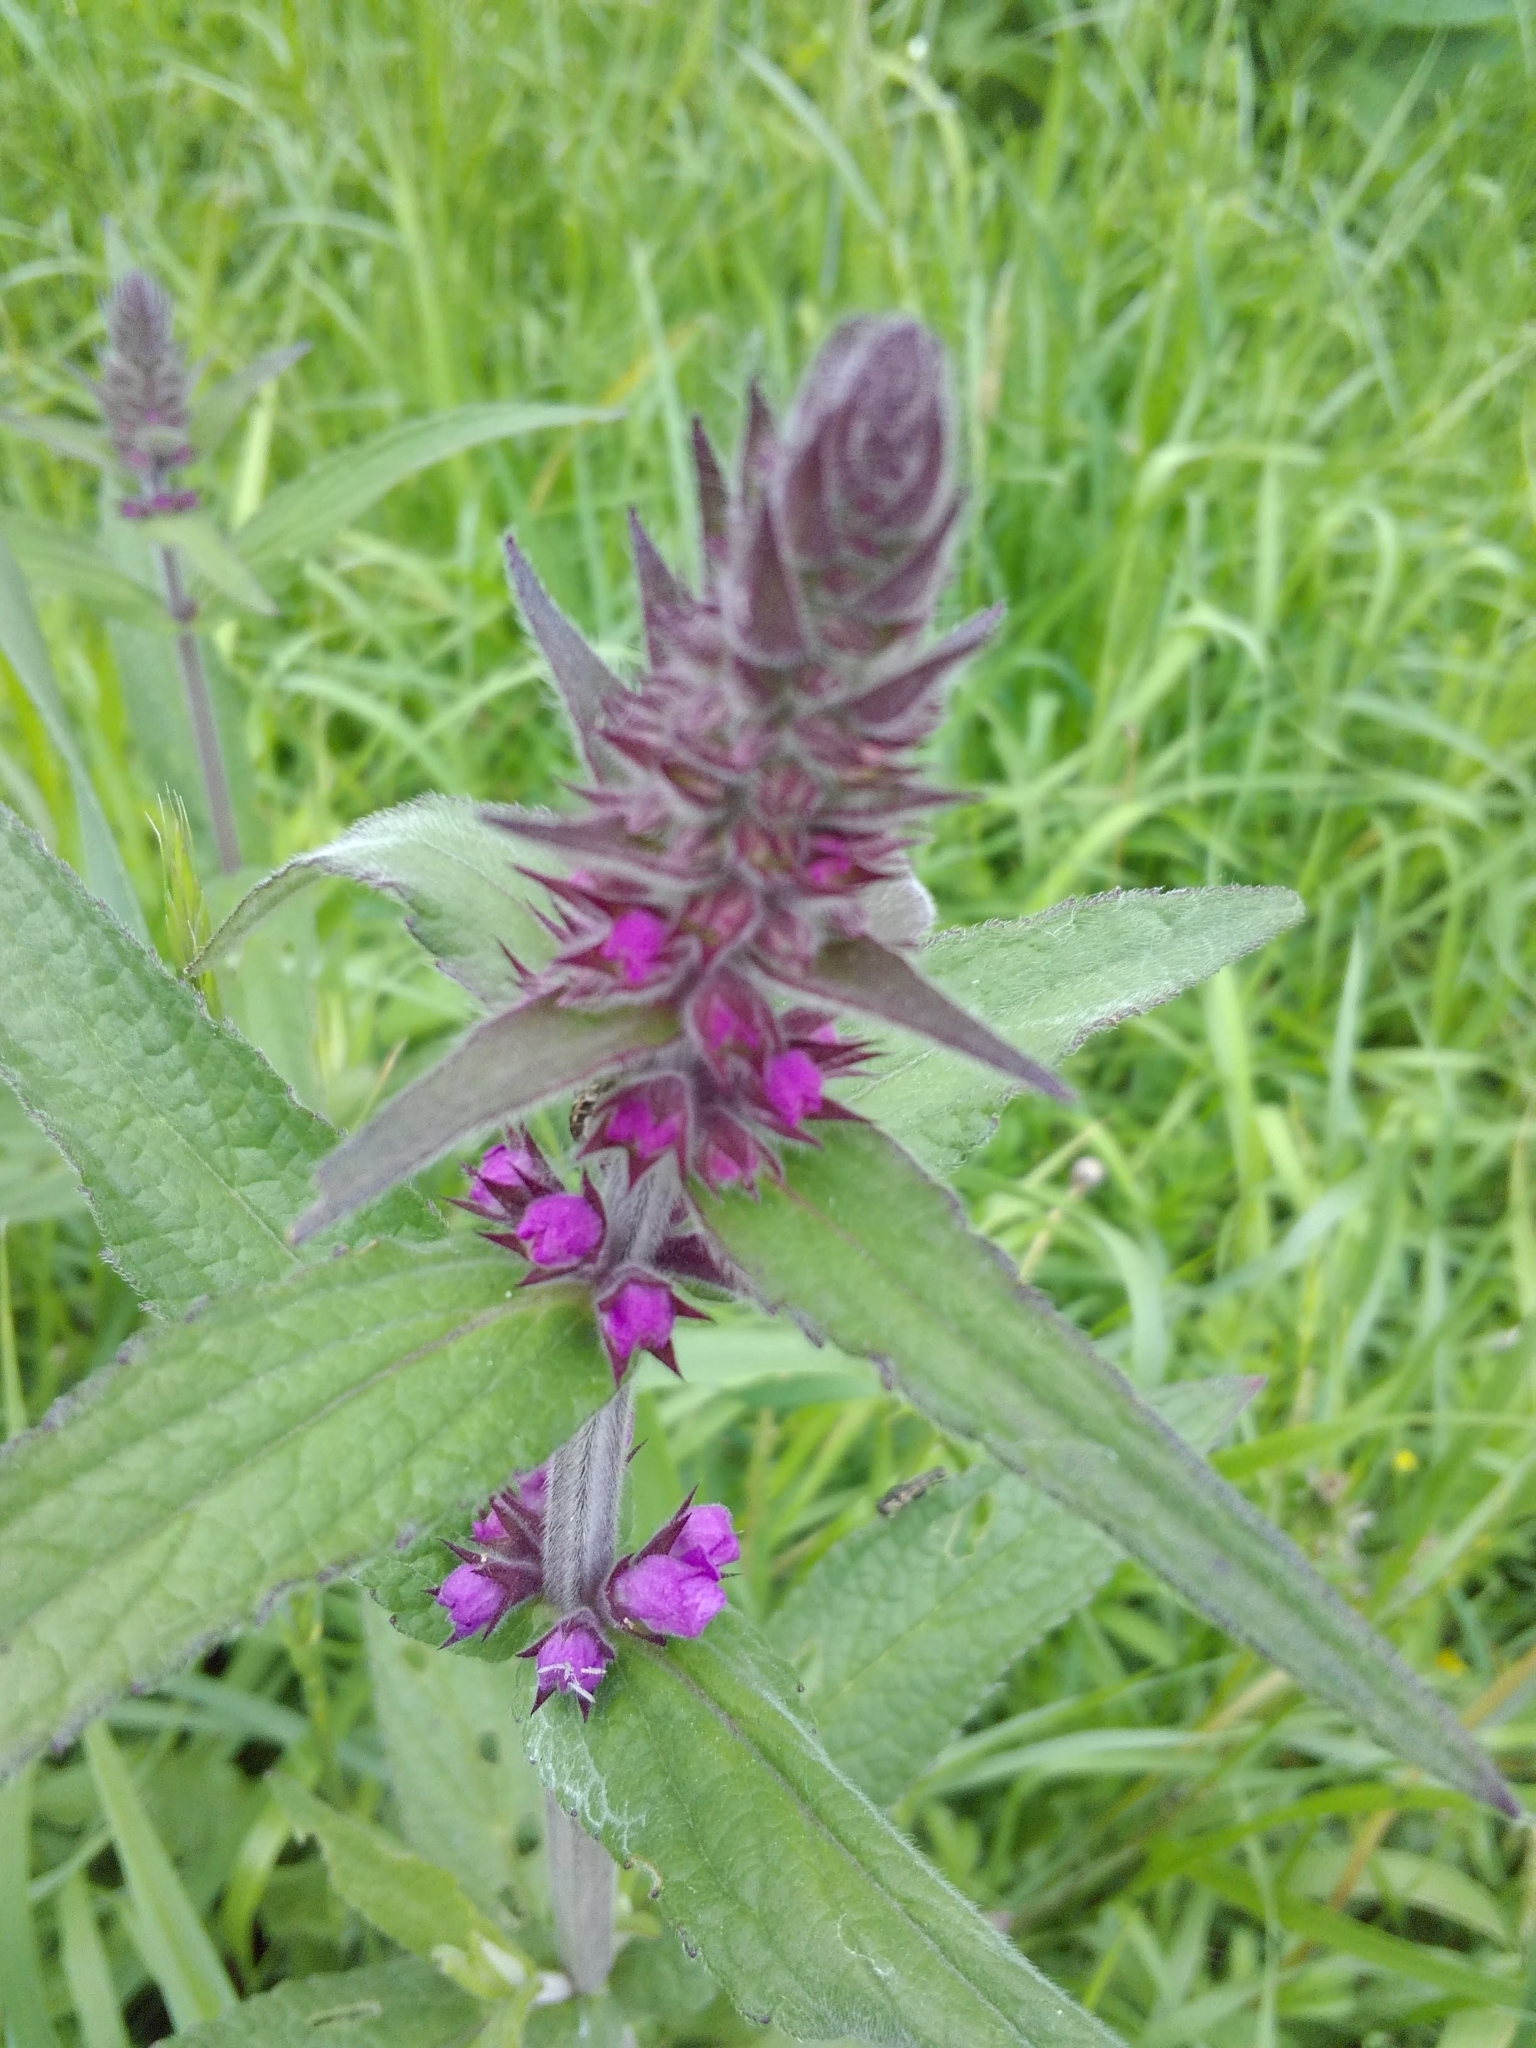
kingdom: Plantae
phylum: Tracheophyta
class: Magnoliopsida
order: Lamiales
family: Lamiaceae
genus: Stachys
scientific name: Stachys palustris
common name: Marsh woundwort
